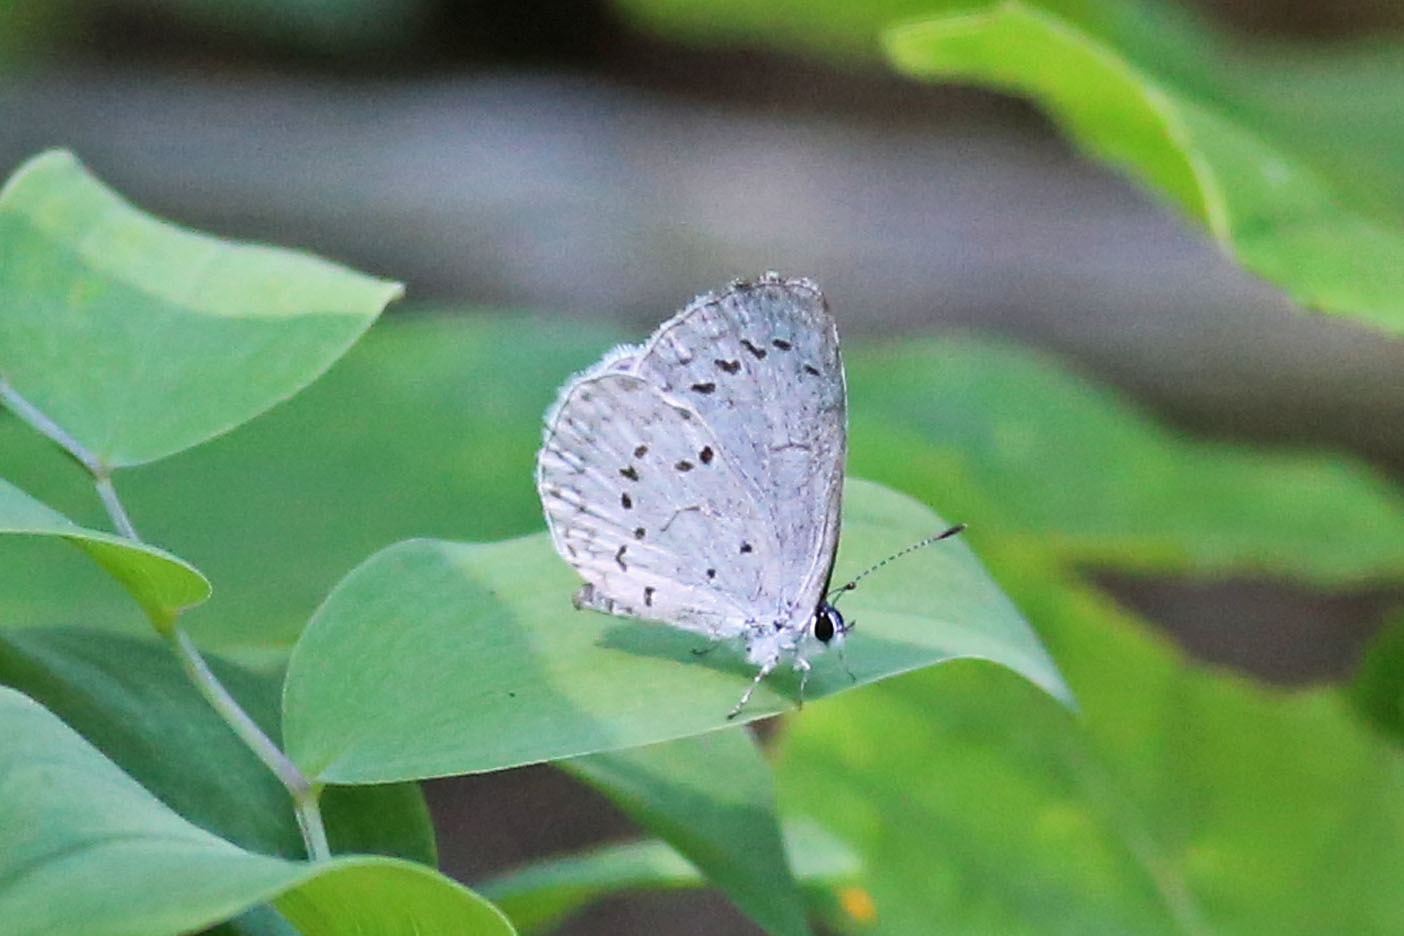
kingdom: Animalia
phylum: Arthropoda
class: Insecta
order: Lepidoptera
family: Lycaenidae
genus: Cyaniris
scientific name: Cyaniris neglecta
